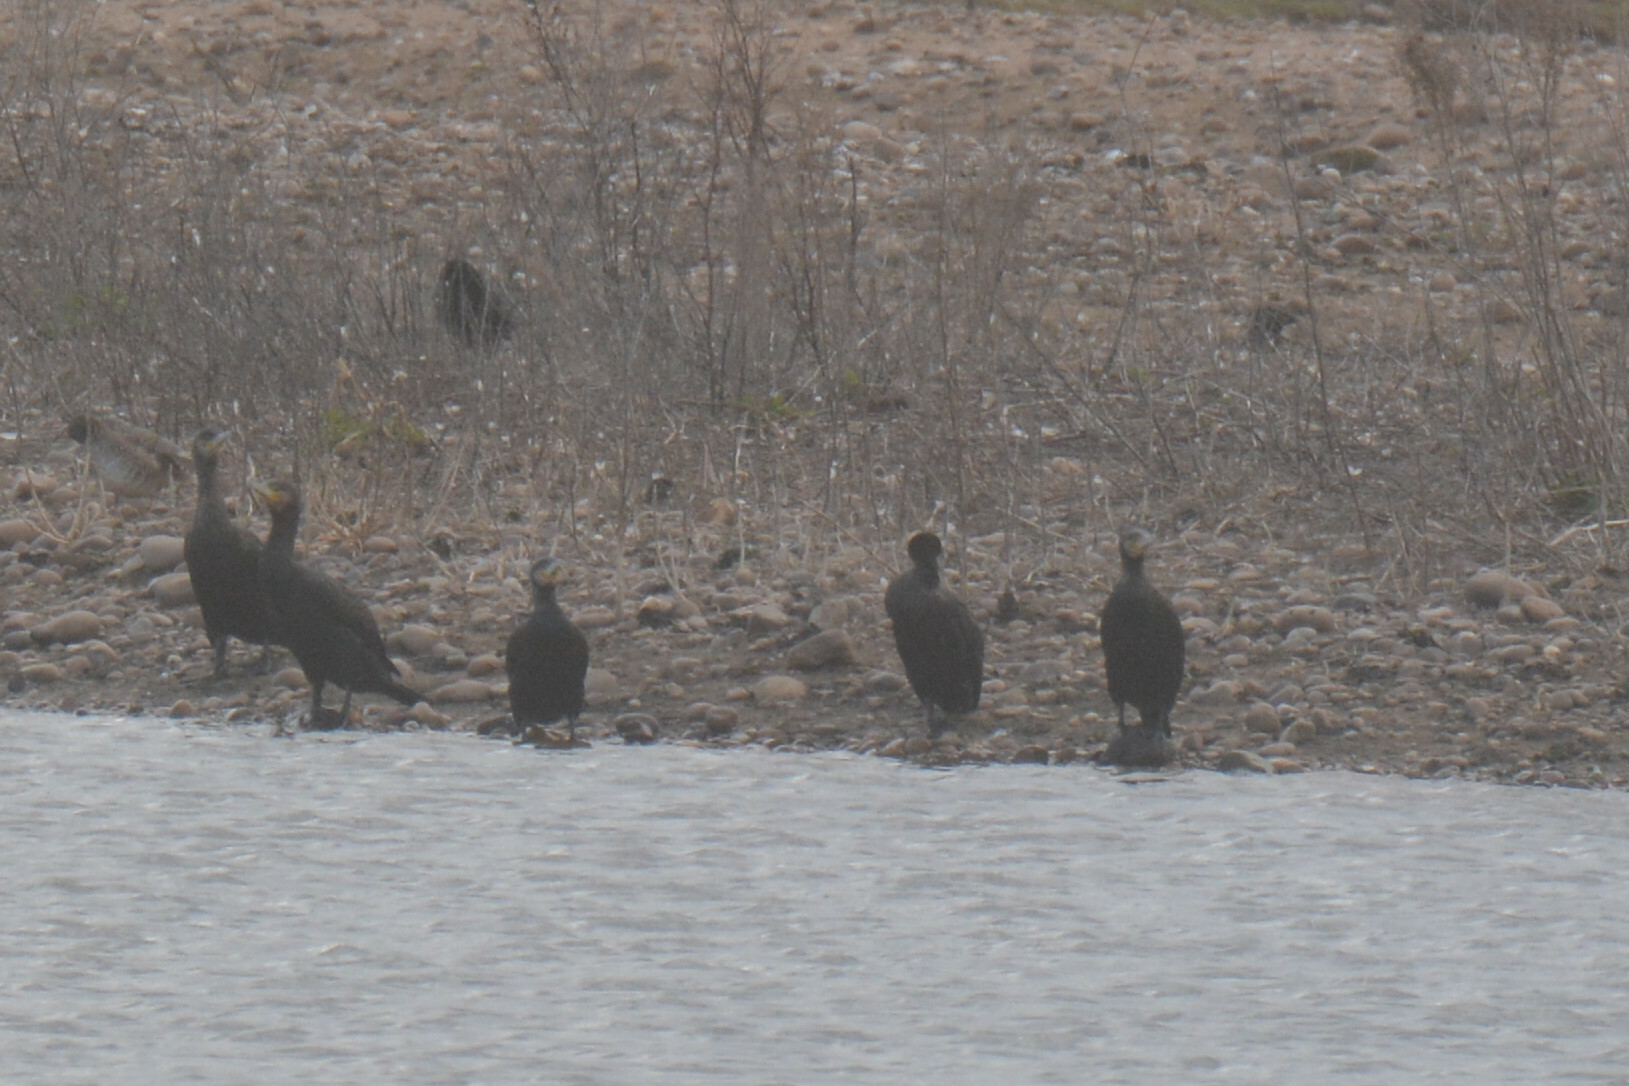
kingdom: Animalia
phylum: Chordata
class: Aves
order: Suliformes
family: Phalacrocoracidae
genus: Phalacrocorax
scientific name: Phalacrocorax carbo
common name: Great cormorant
